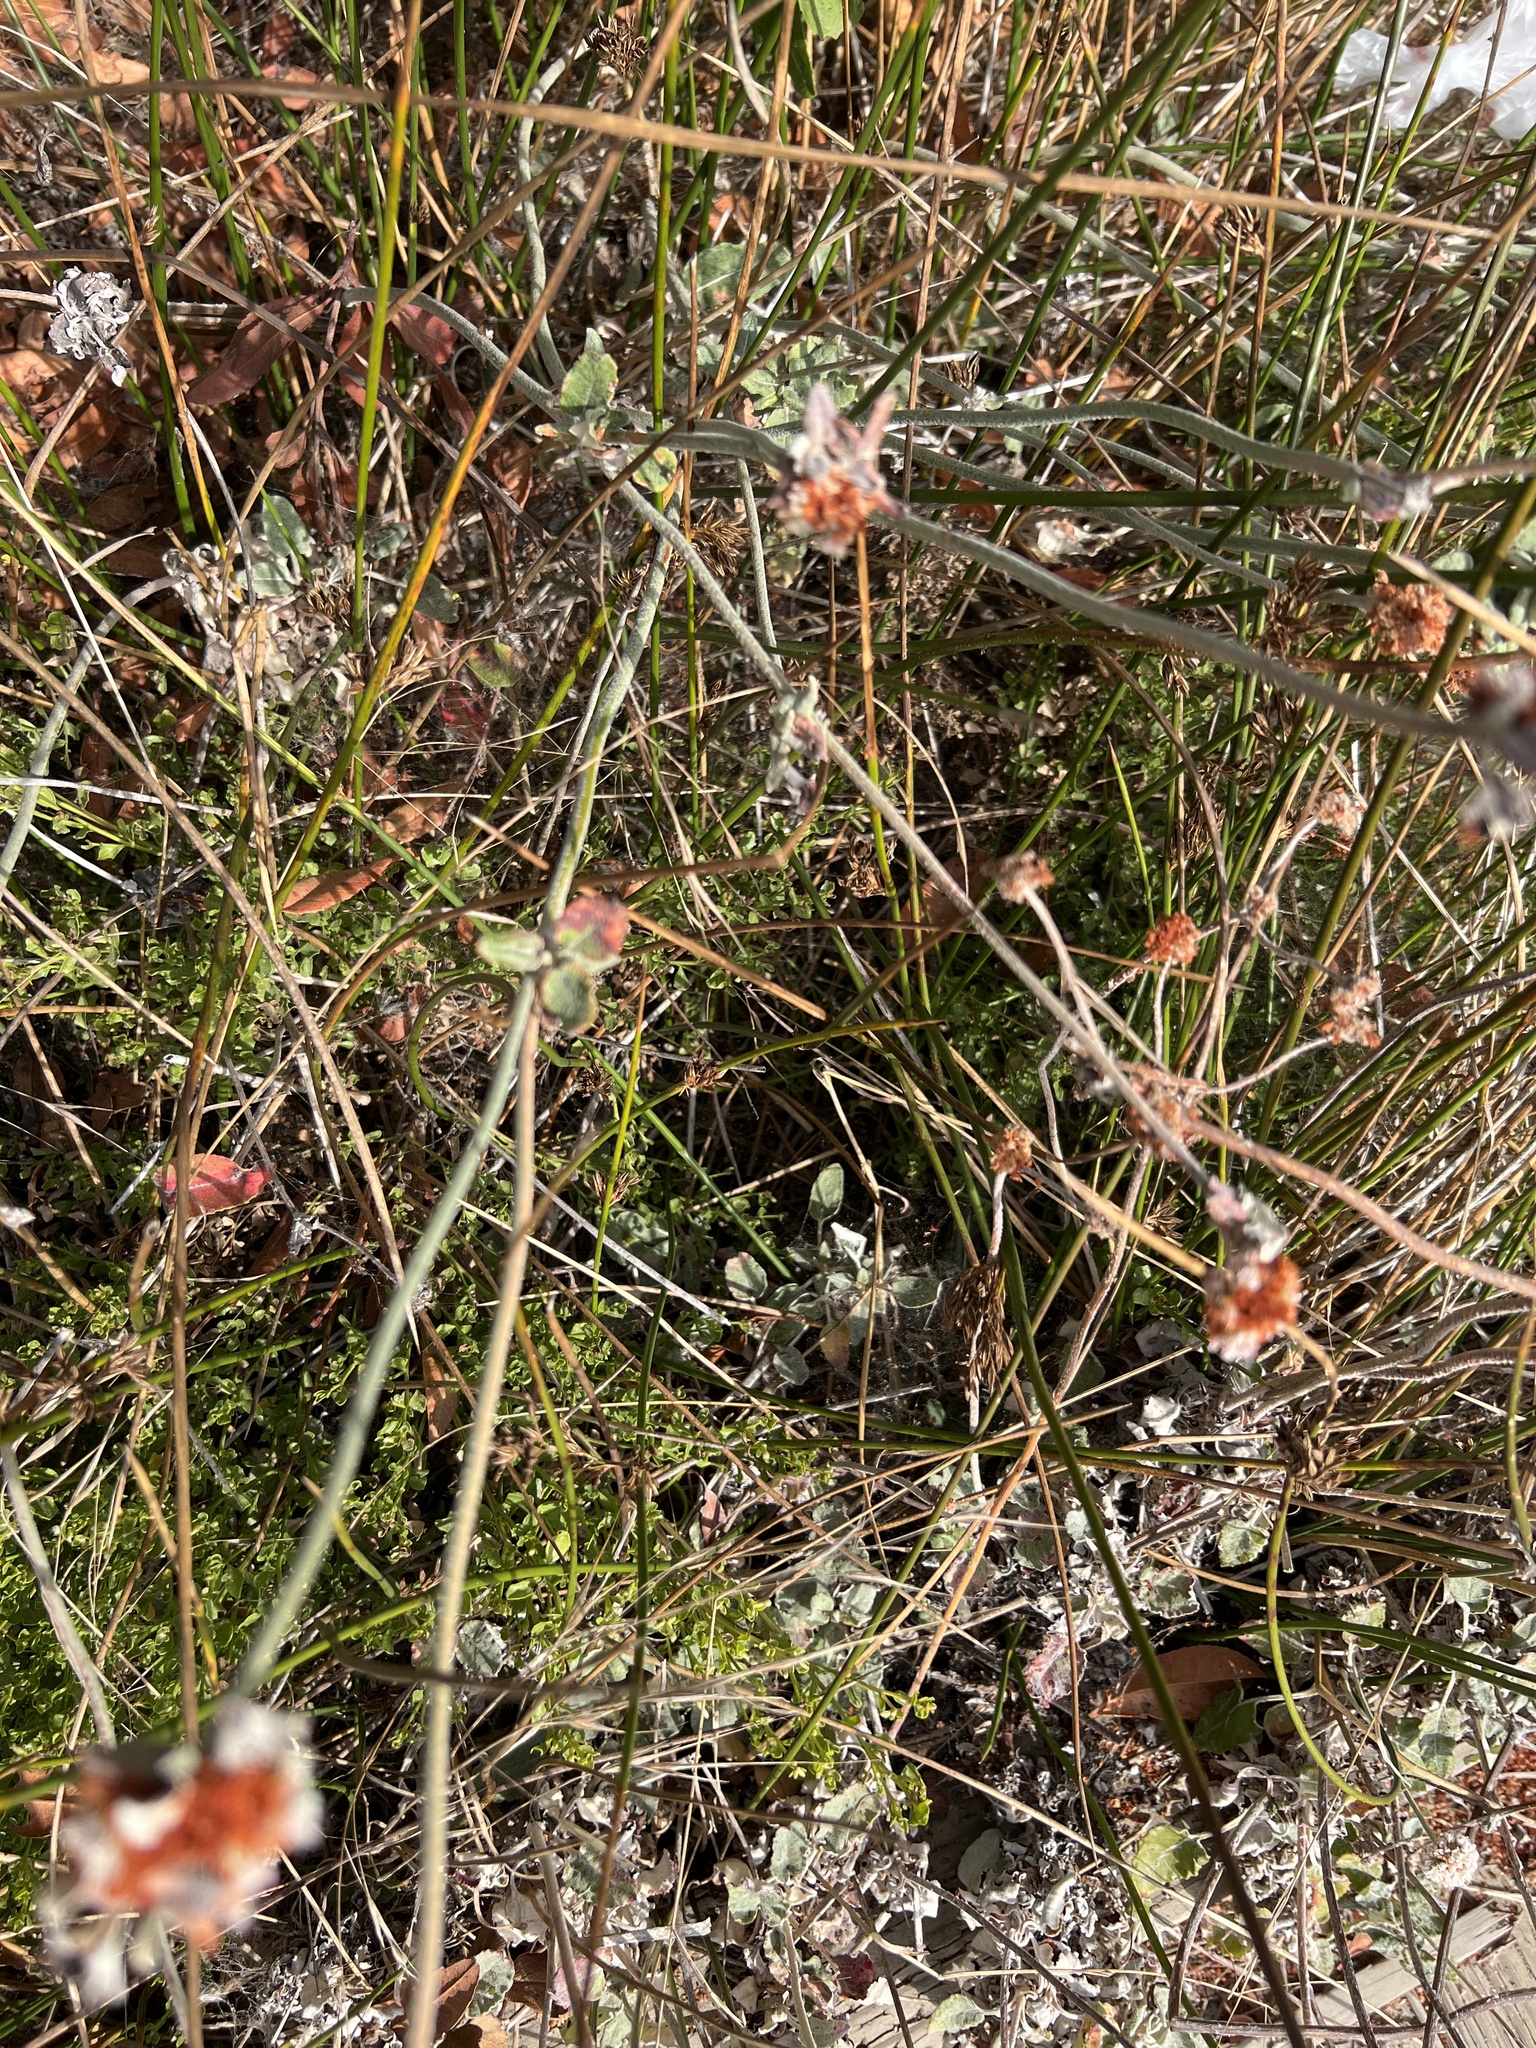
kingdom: Plantae
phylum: Tracheophyta
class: Magnoliopsida
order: Caryophyllales
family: Polygonaceae
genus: Eriogonum
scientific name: Eriogonum latifolium
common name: Seaside wild buckwheat
